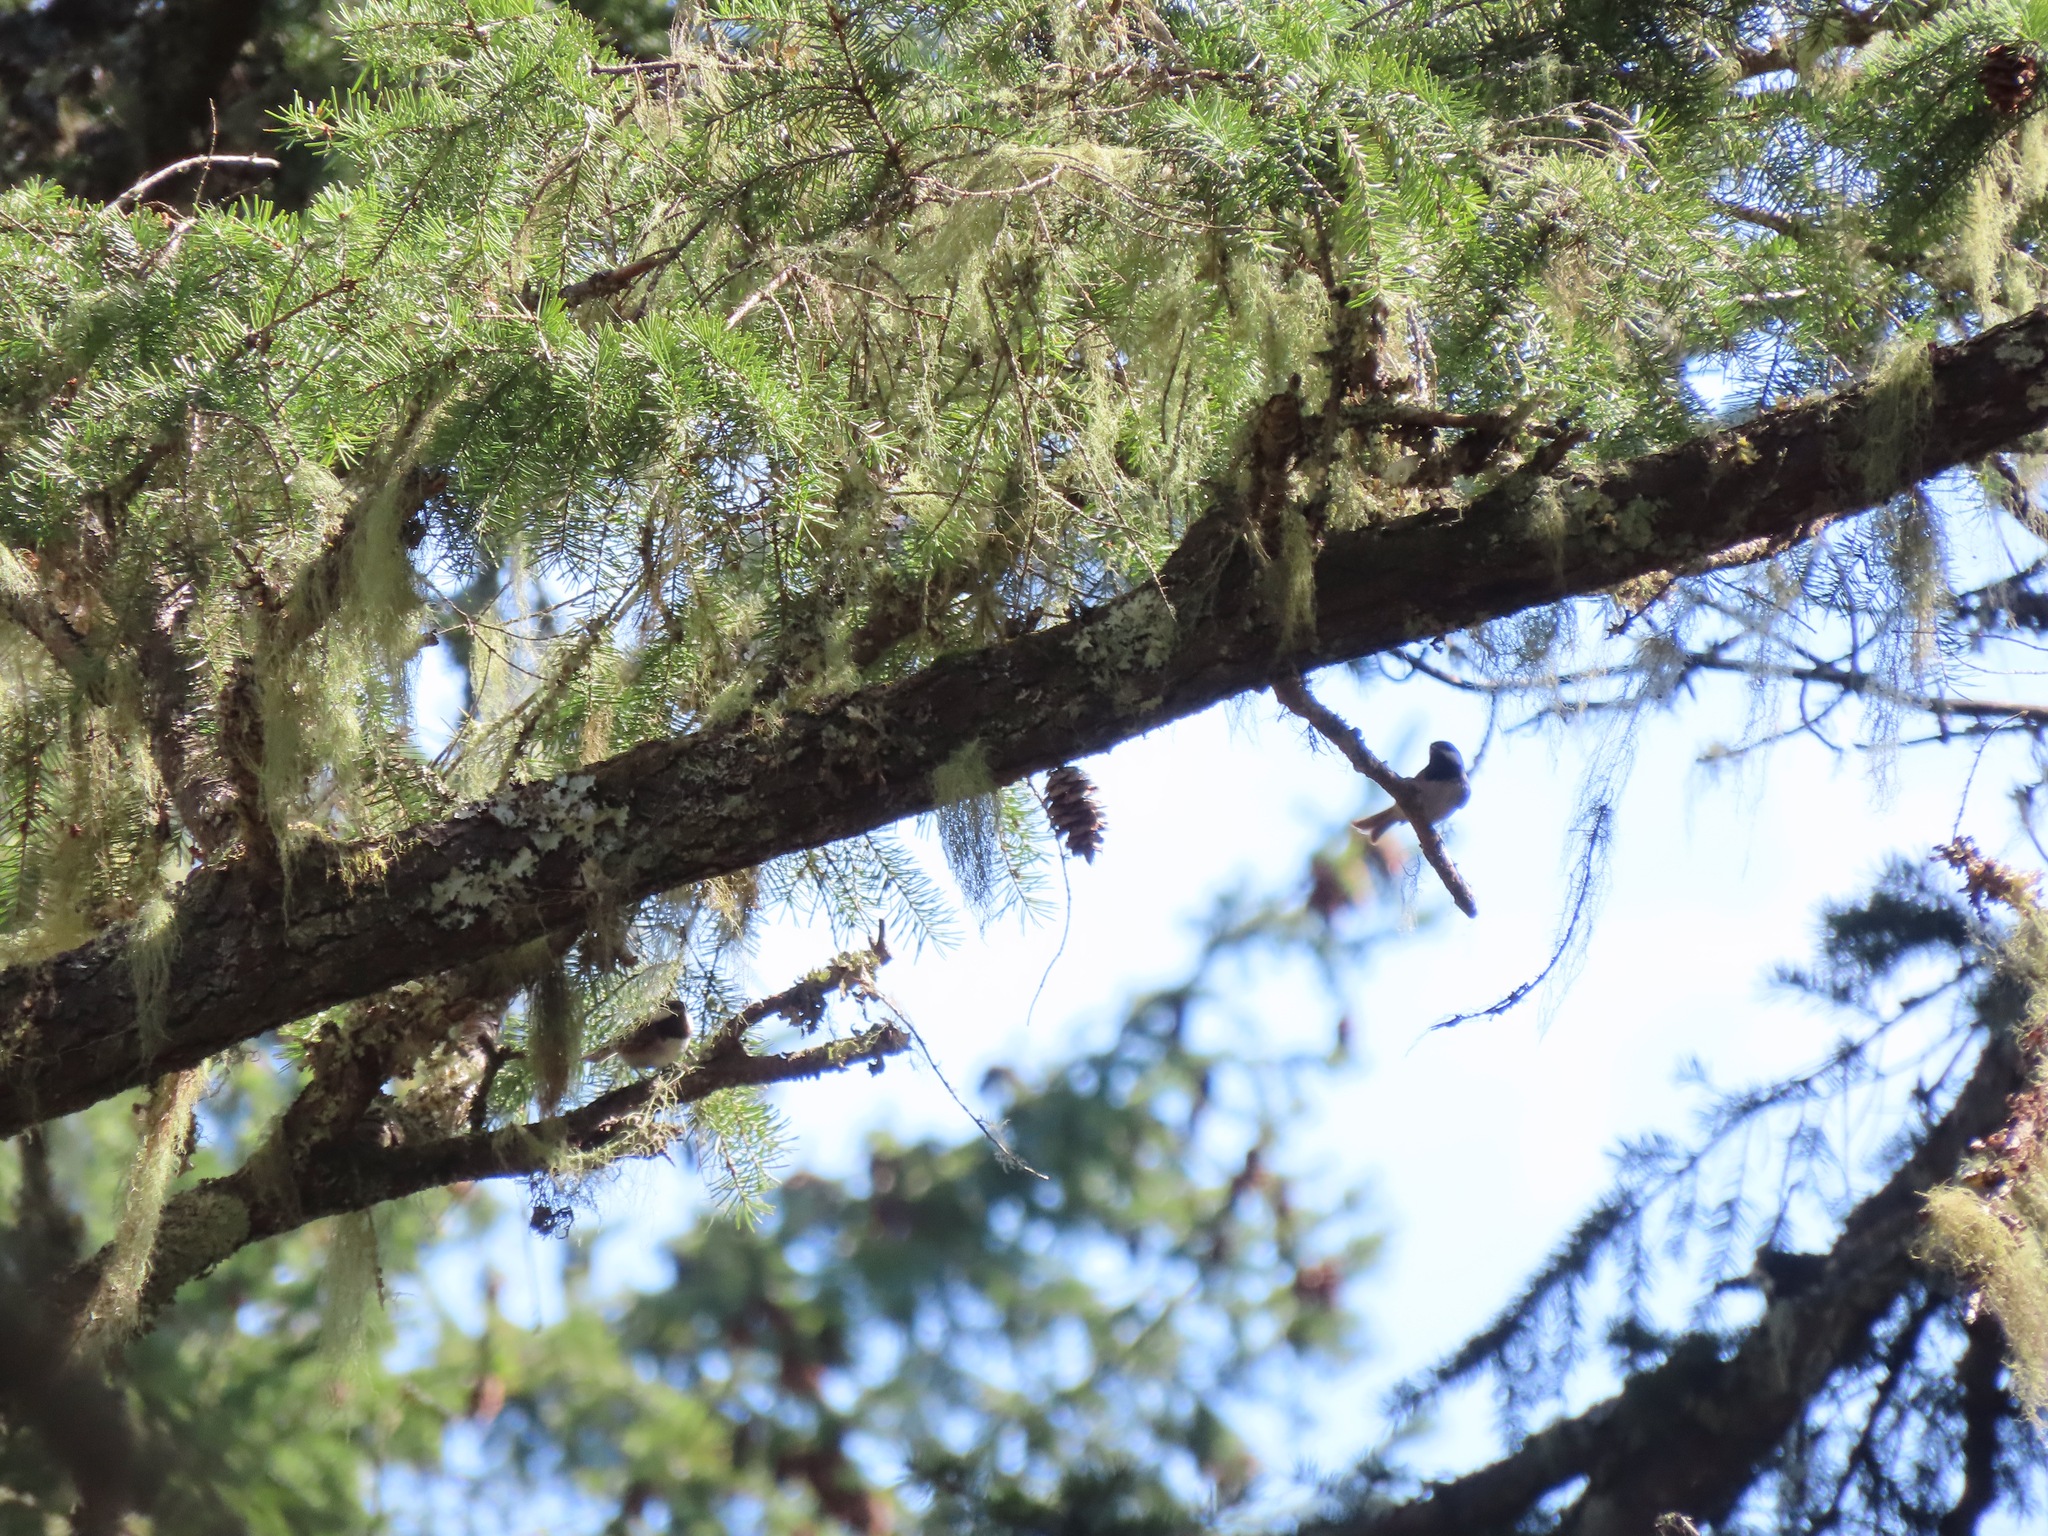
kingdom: Animalia
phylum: Chordata
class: Aves
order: Passeriformes
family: Paridae
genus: Poecile
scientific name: Poecile rufescens
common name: Chestnut-backed chickadee
